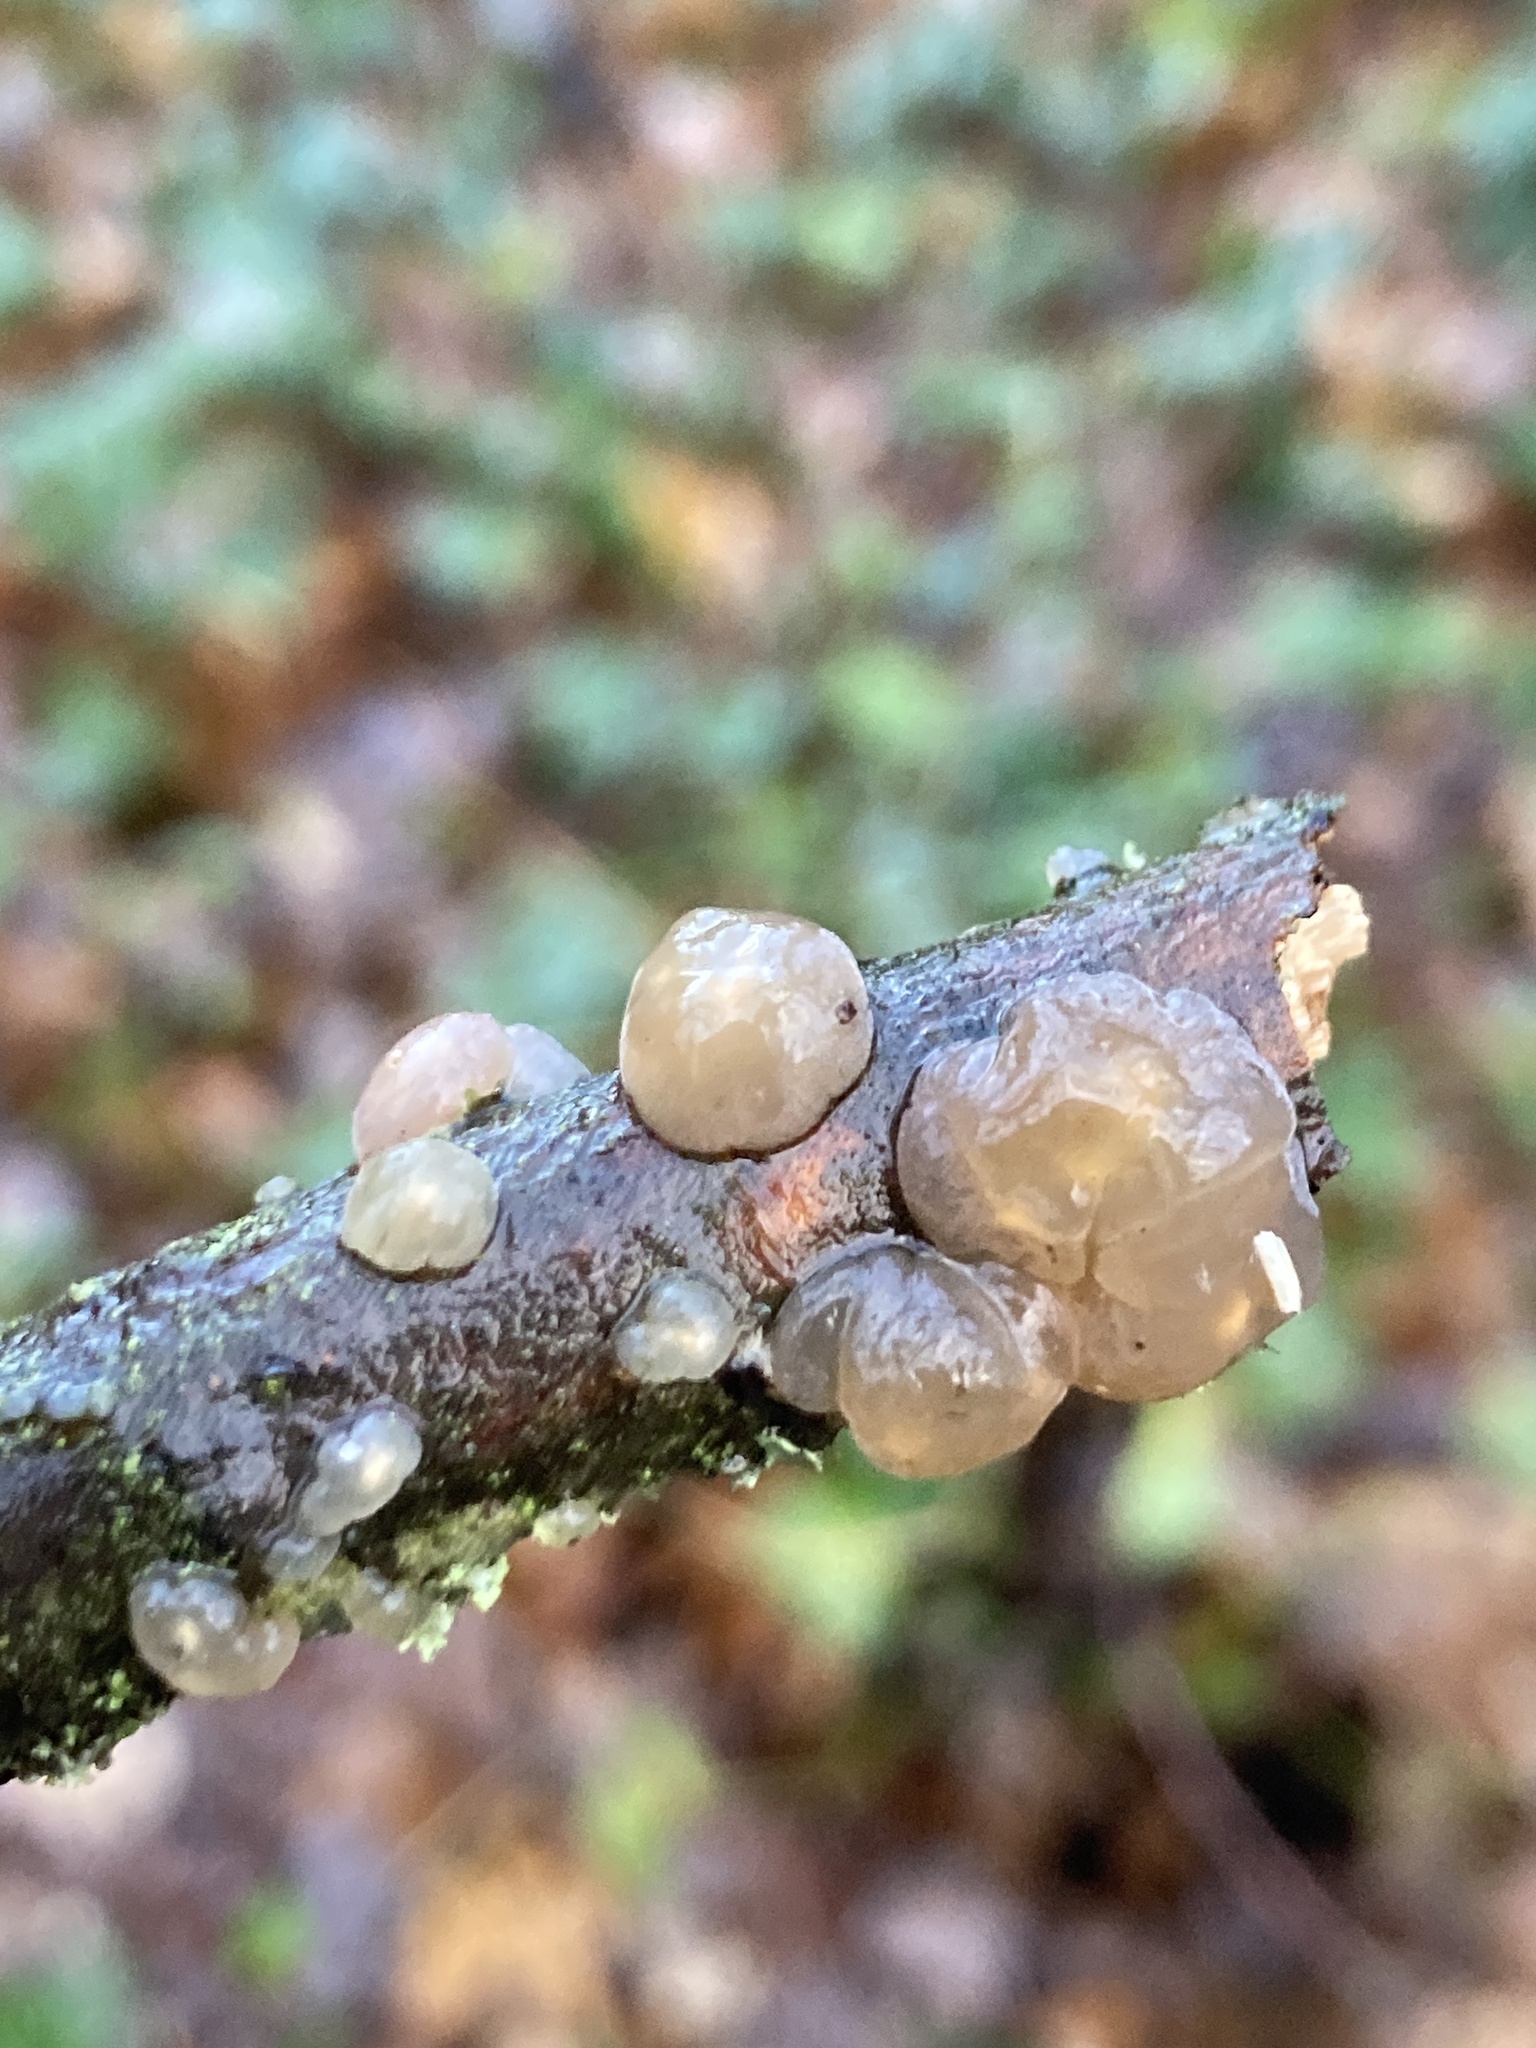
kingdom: Fungi
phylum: Basidiomycota
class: Agaricomycetes
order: Auriculariales
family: Hyaloriaceae
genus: Myxarium
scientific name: Myxarium nucleatum
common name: Crystal brain fungus
